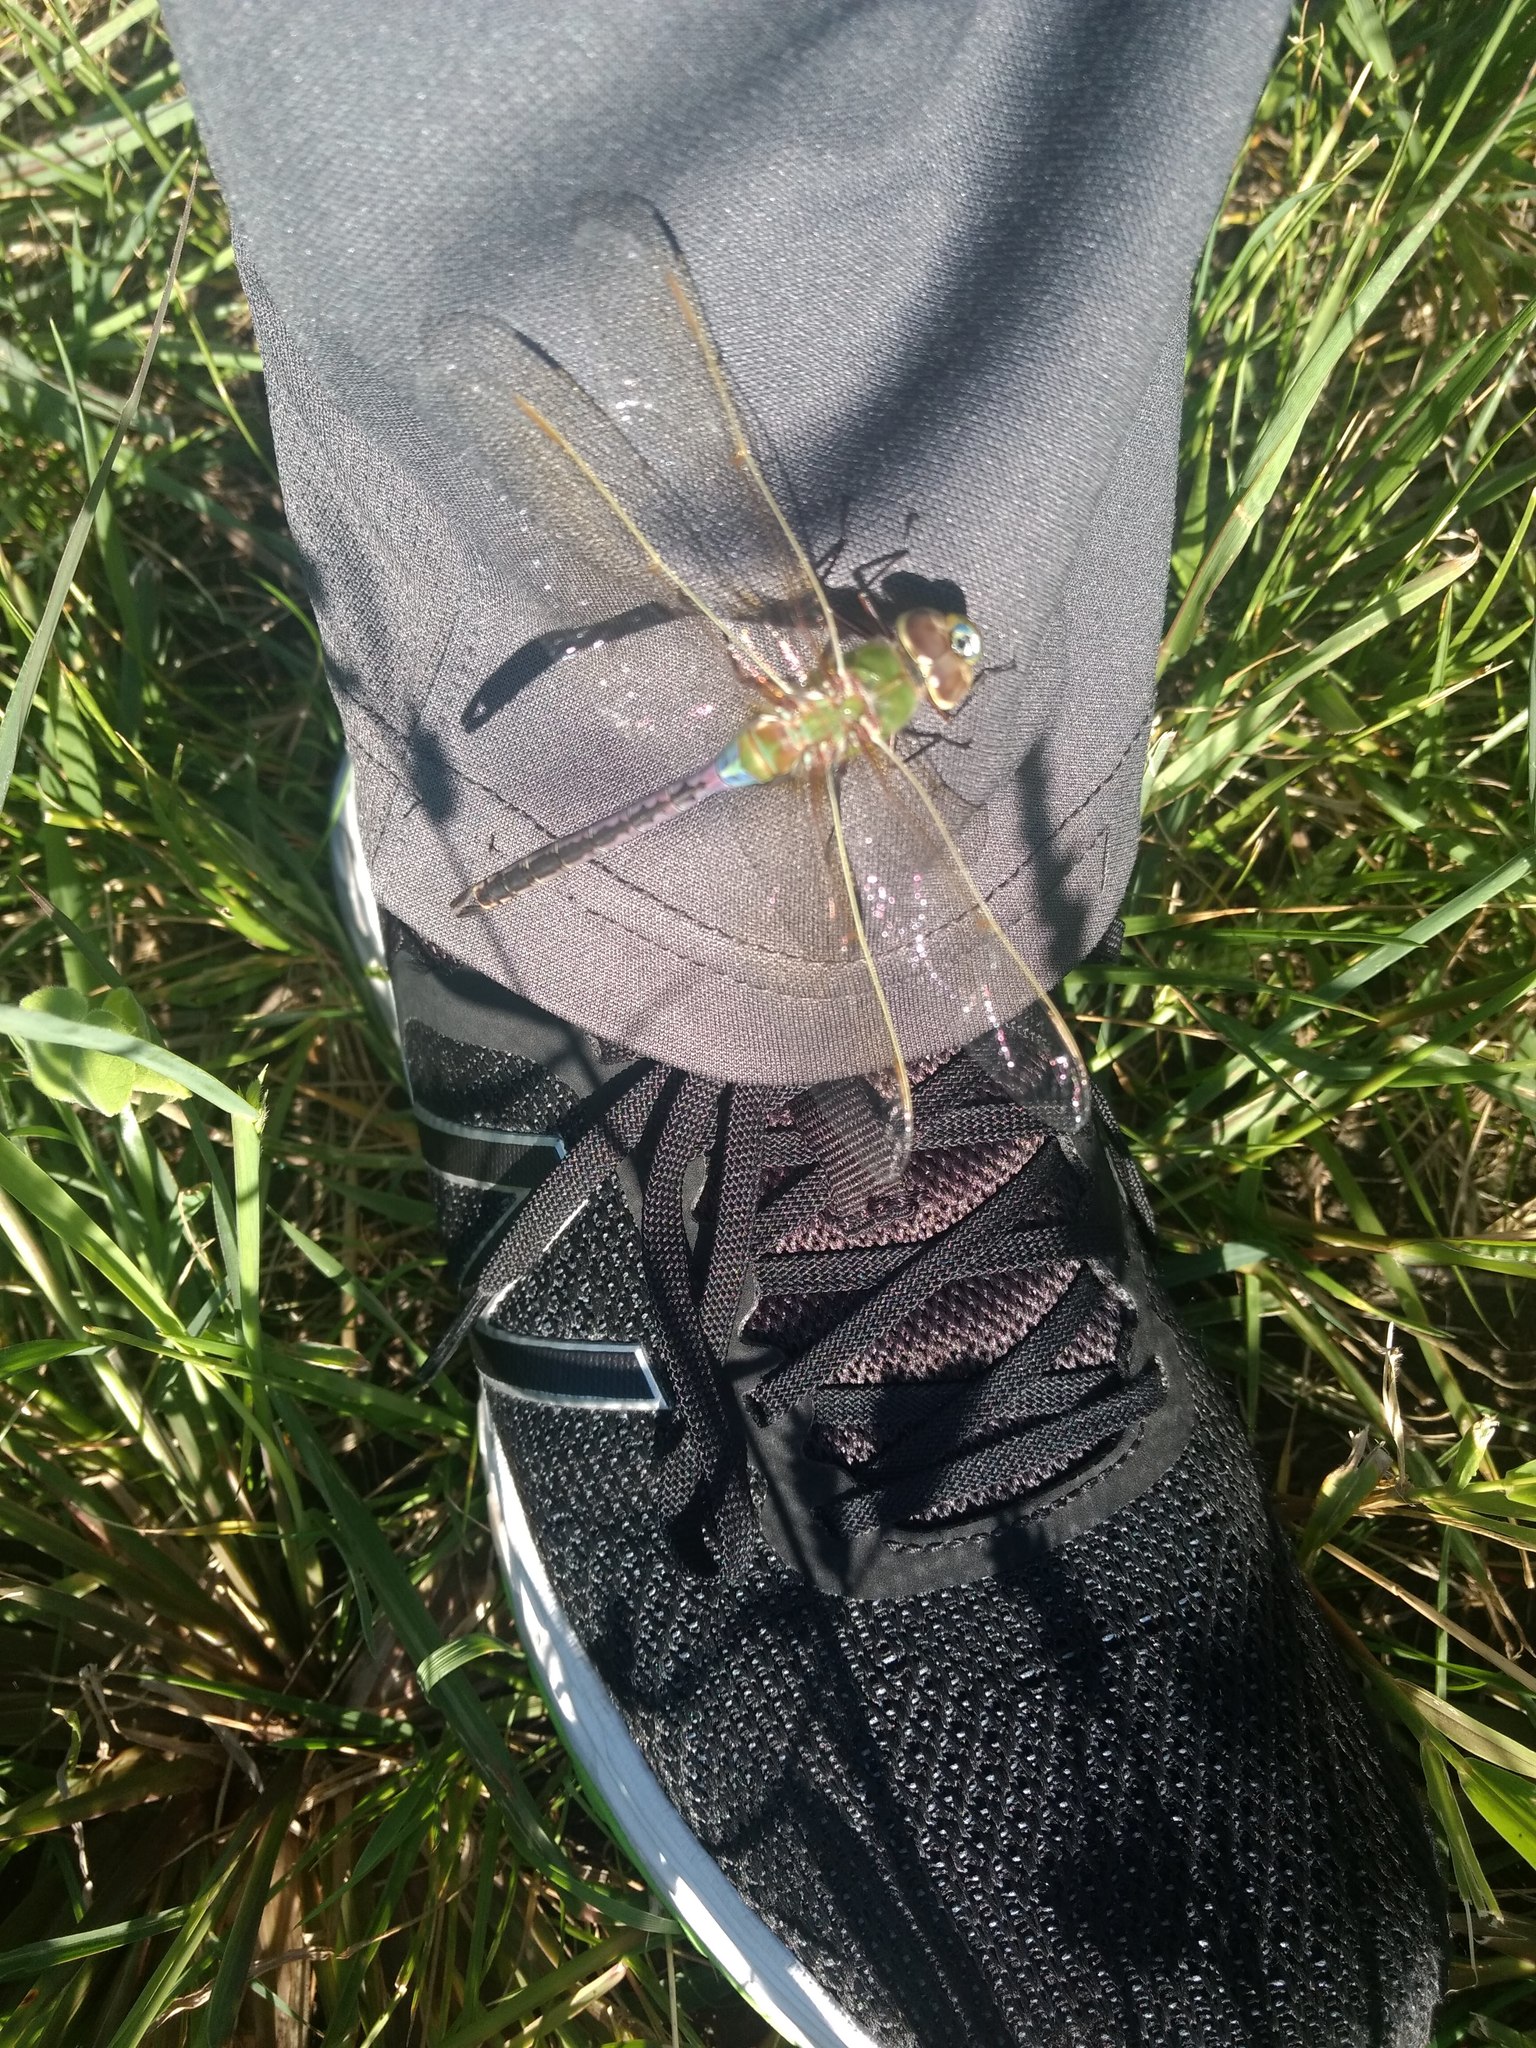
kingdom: Animalia
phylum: Arthropoda
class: Insecta
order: Odonata
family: Aeshnidae
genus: Anax
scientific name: Anax junius
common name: Common green darner
